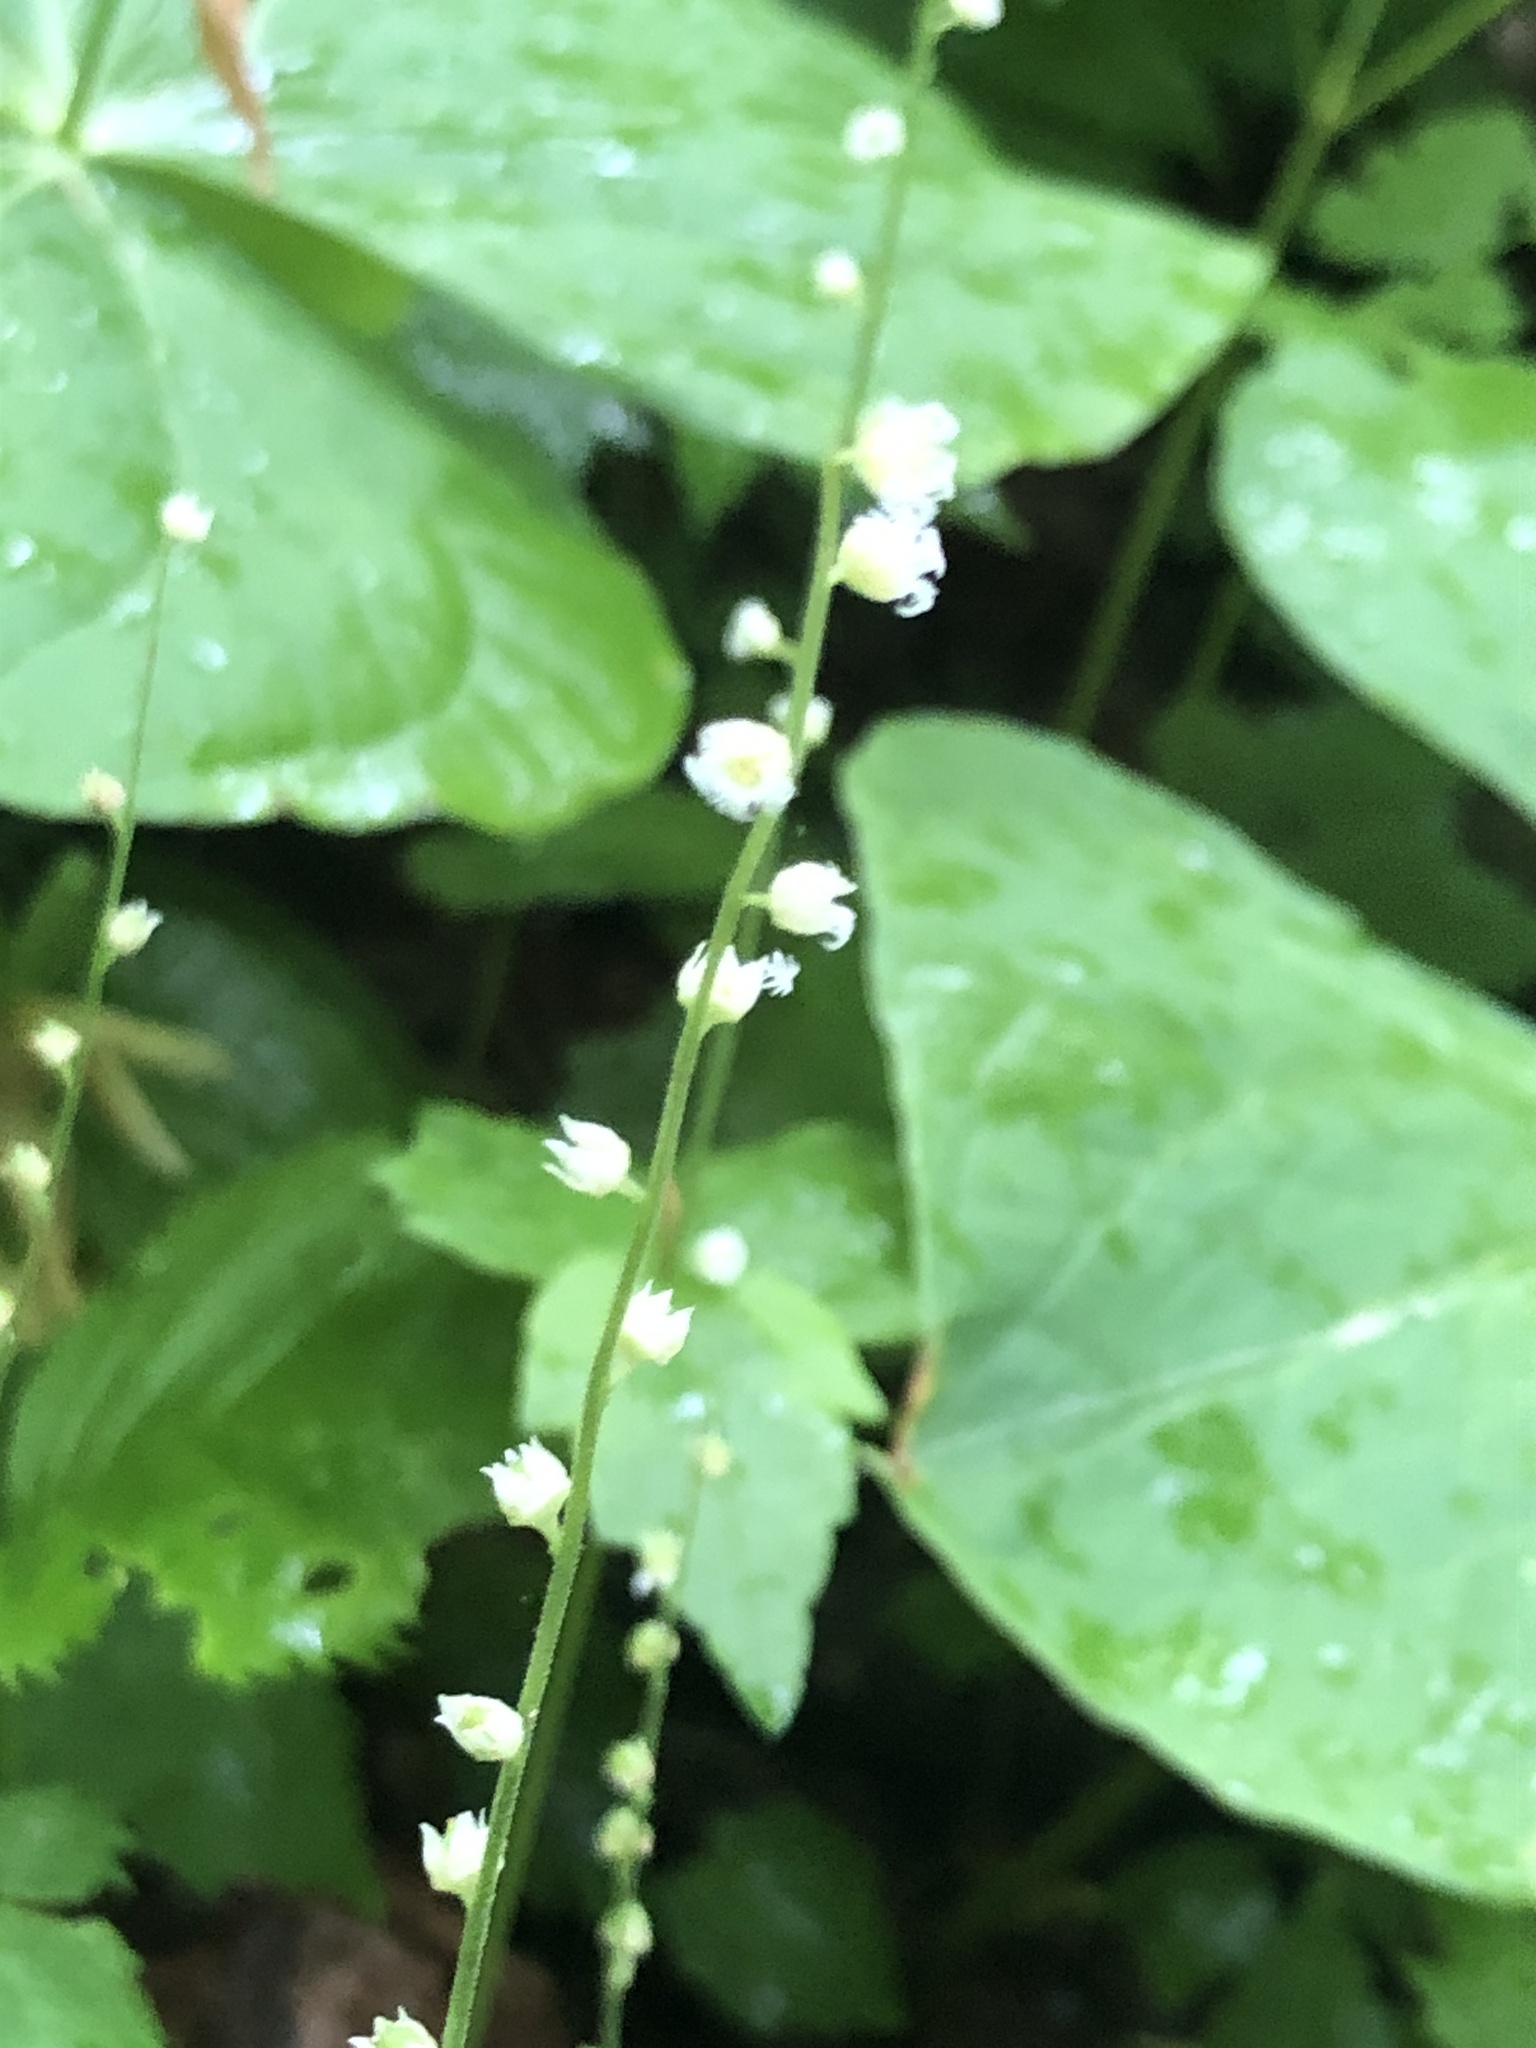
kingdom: Plantae
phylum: Tracheophyta
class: Magnoliopsida
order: Saxifragales
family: Saxifragaceae
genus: Mitella
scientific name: Mitella diphylla
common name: Coolwort
